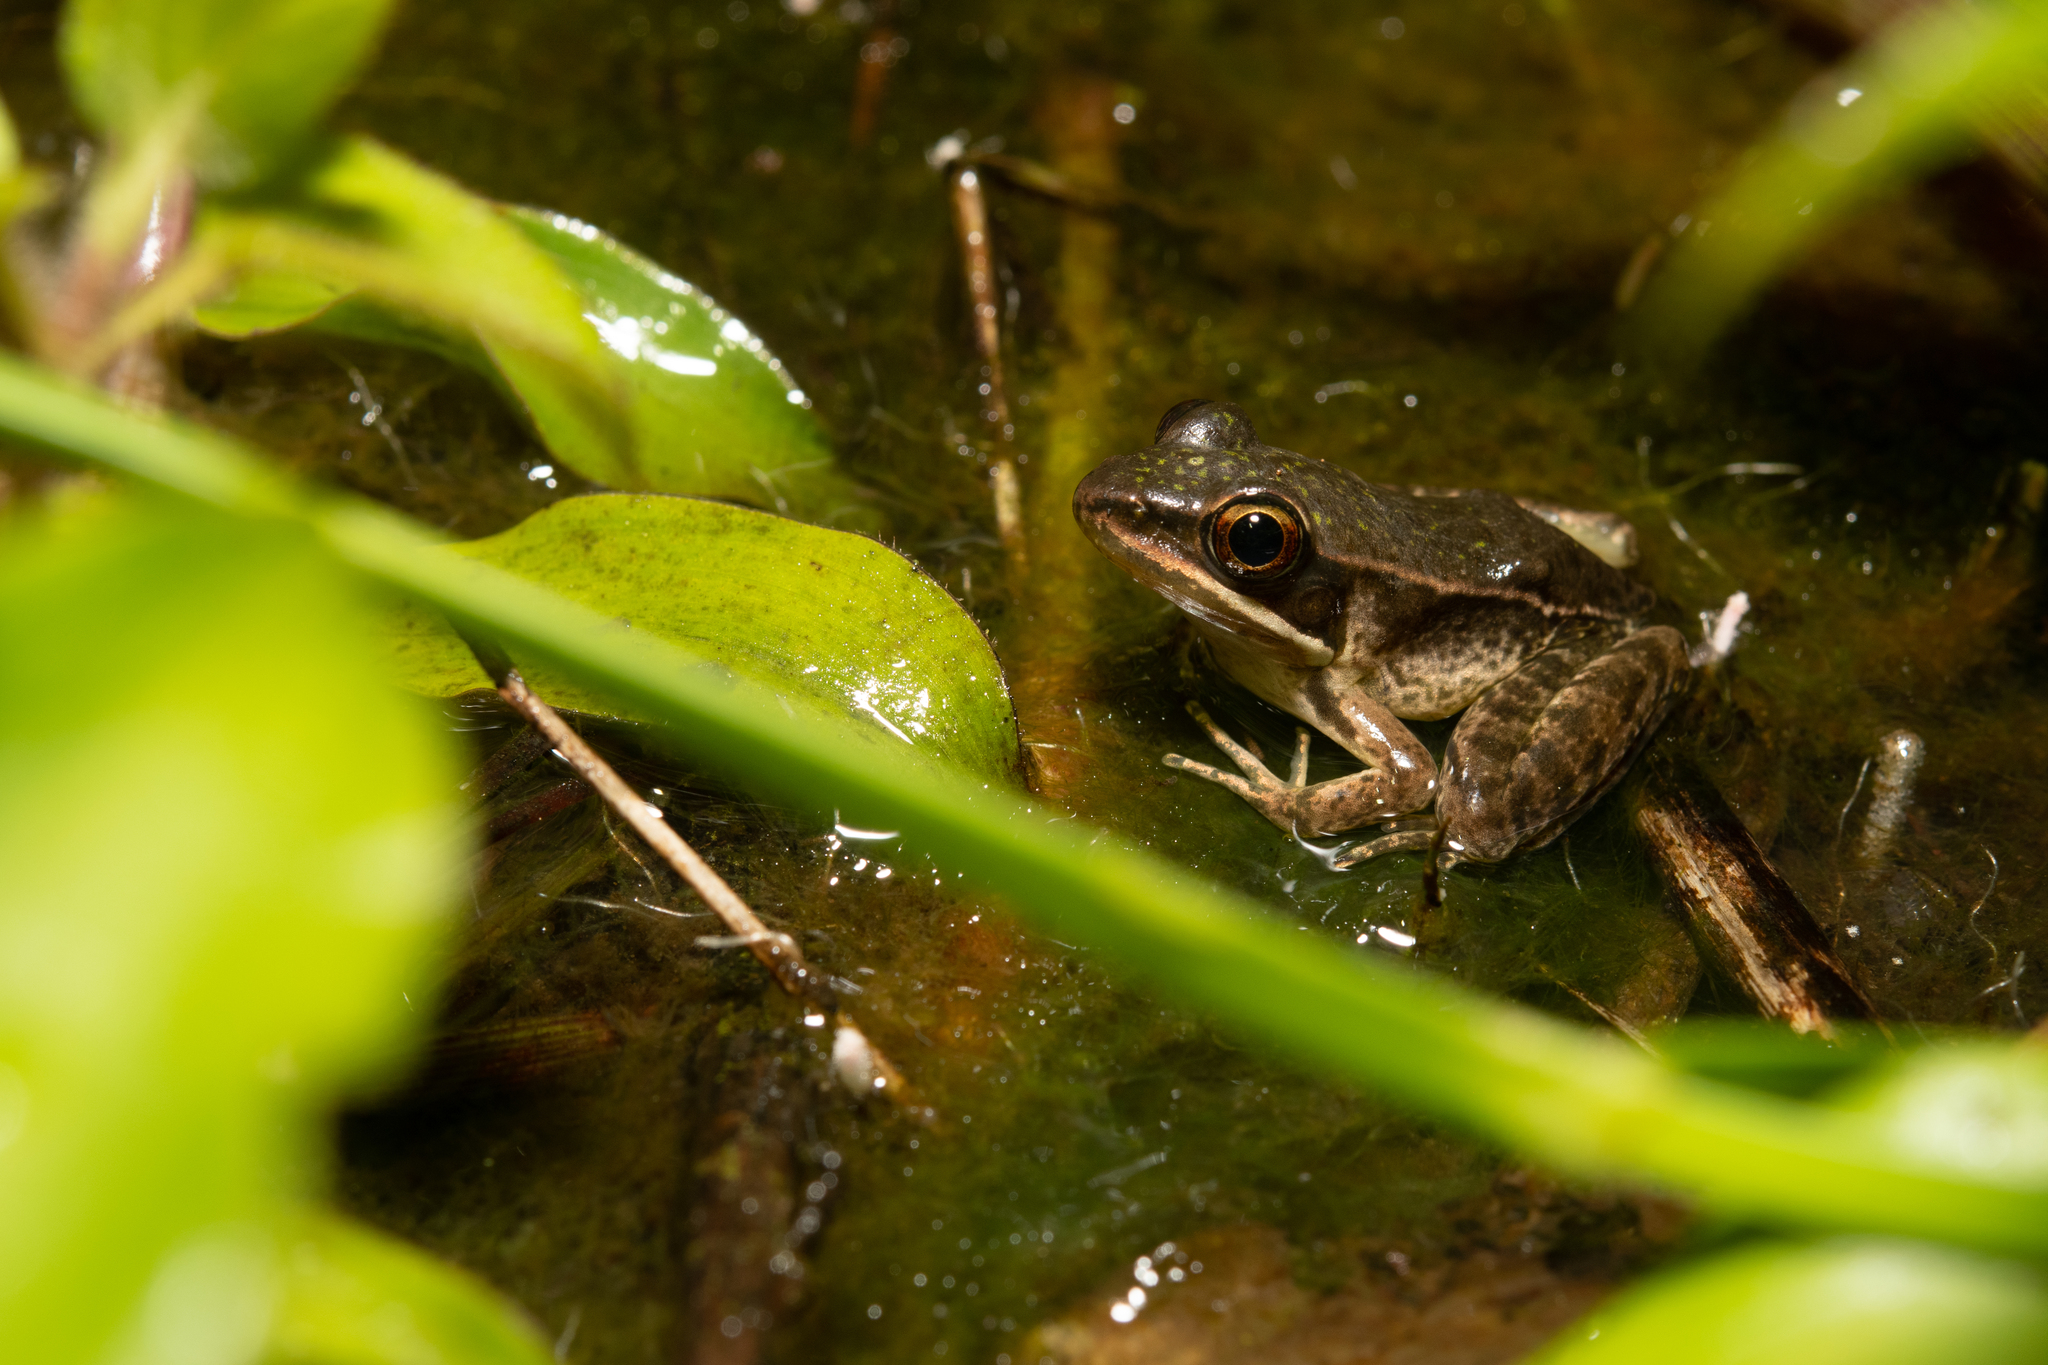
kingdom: Animalia
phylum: Chordata
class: Amphibia
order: Anura
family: Ranidae
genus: Lithobates
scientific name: Lithobates maculatus
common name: Highland frog
